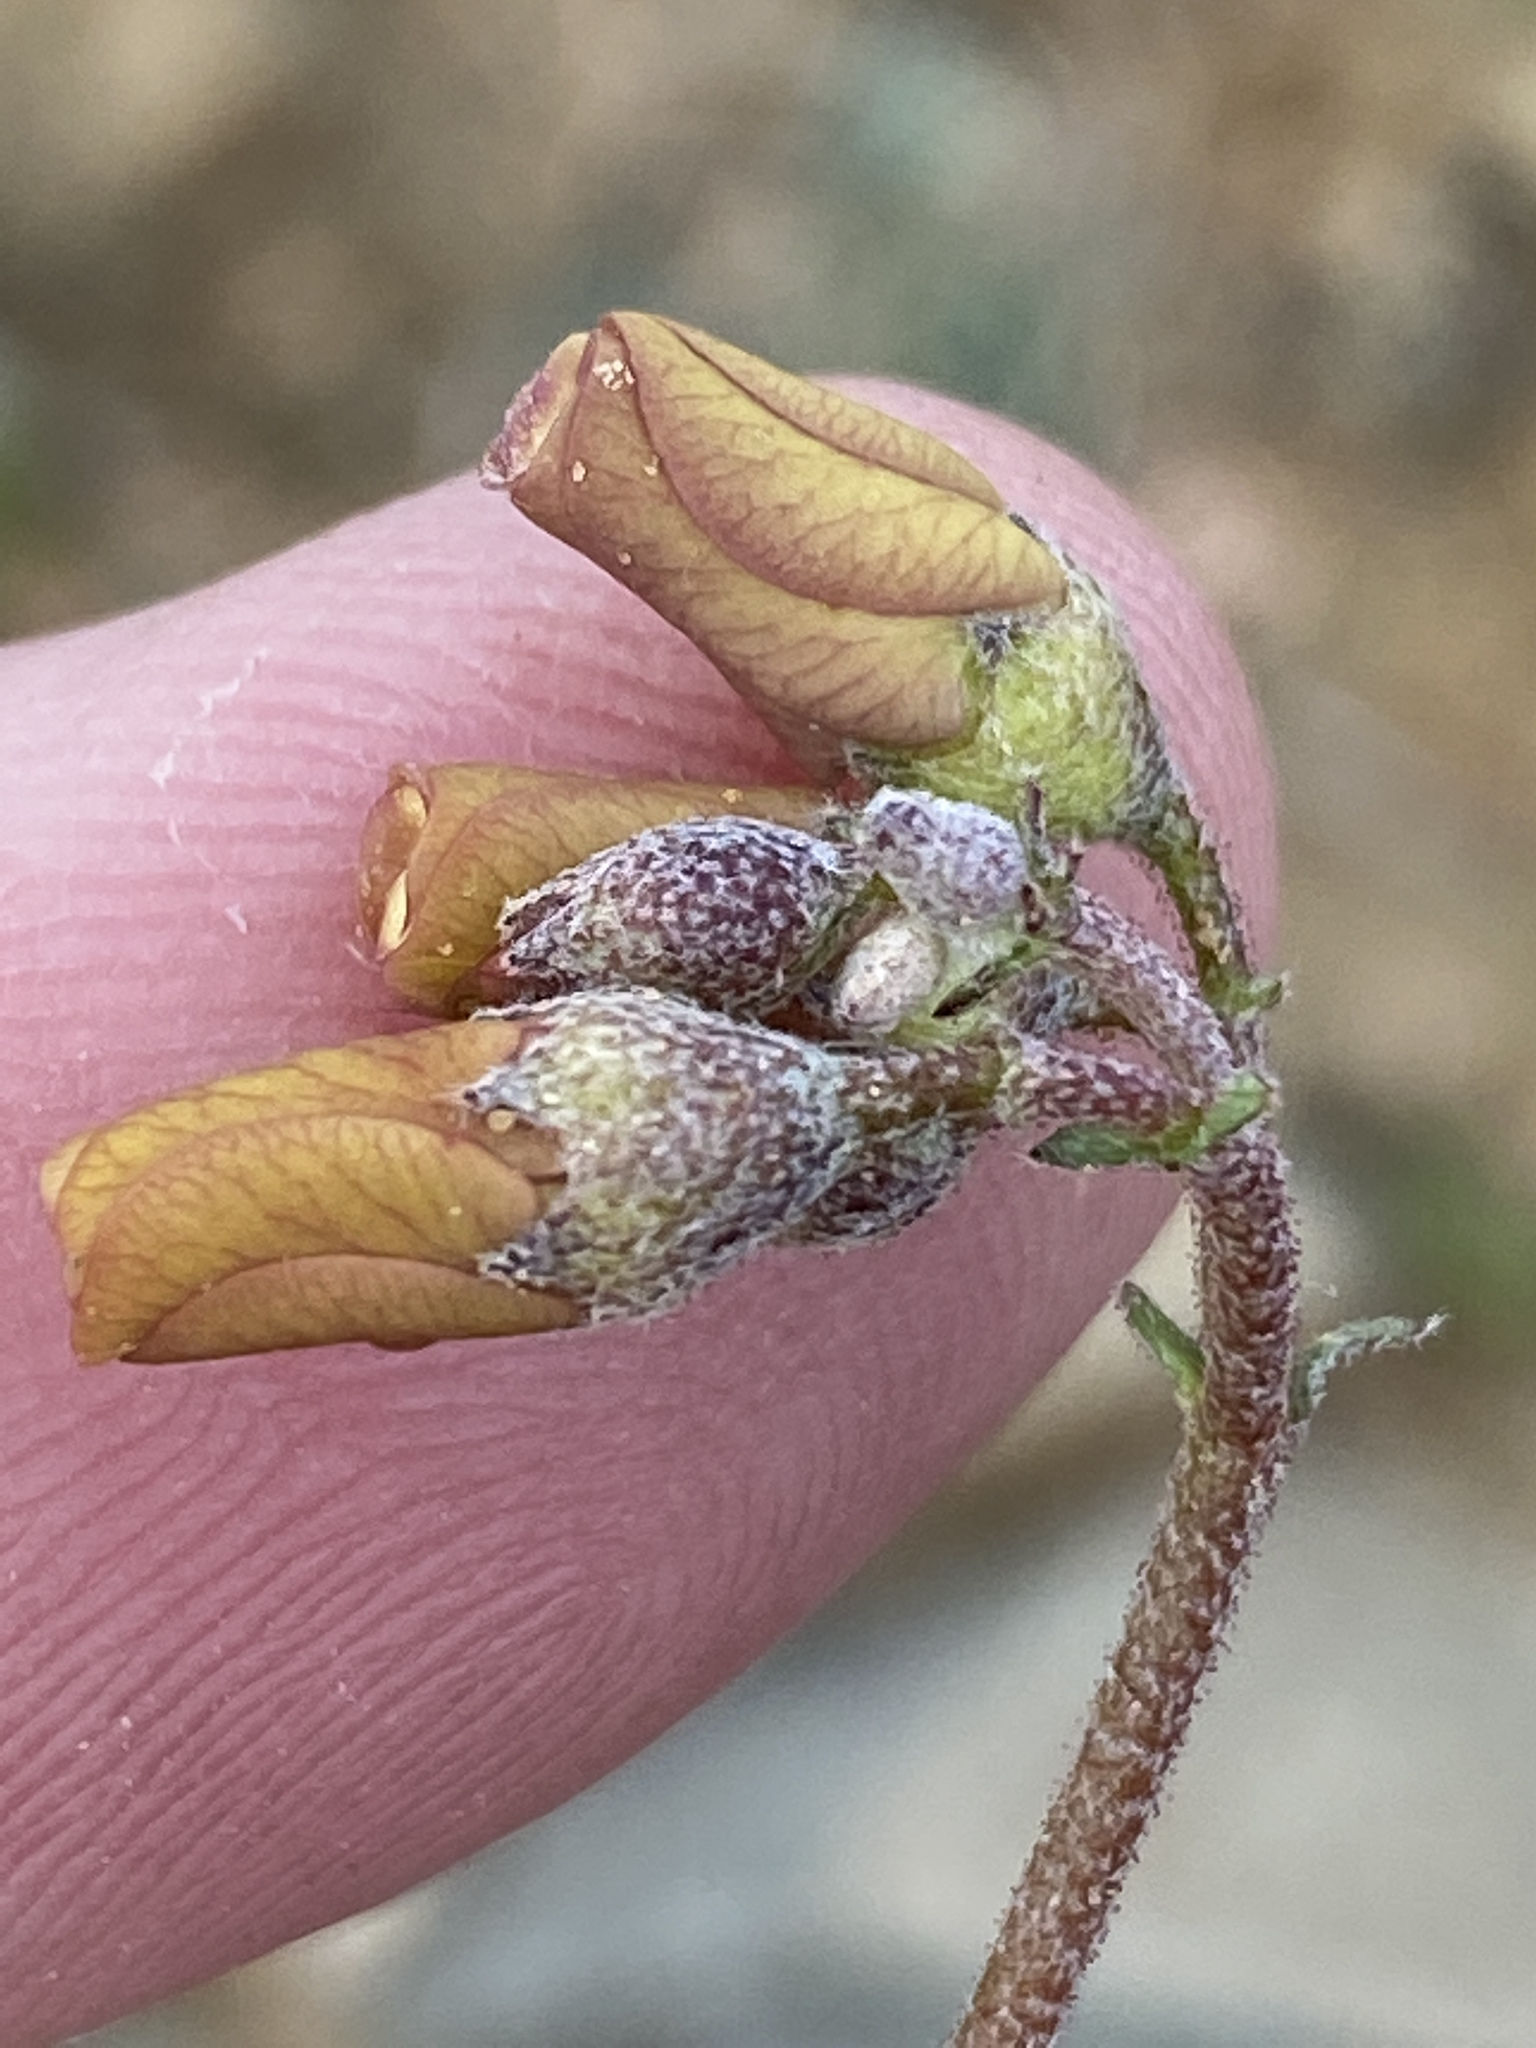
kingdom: Plantae
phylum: Tracheophyta
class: Magnoliopsida
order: Malvales
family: Malvaceae
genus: Hermannia
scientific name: Hermannia pulverata
